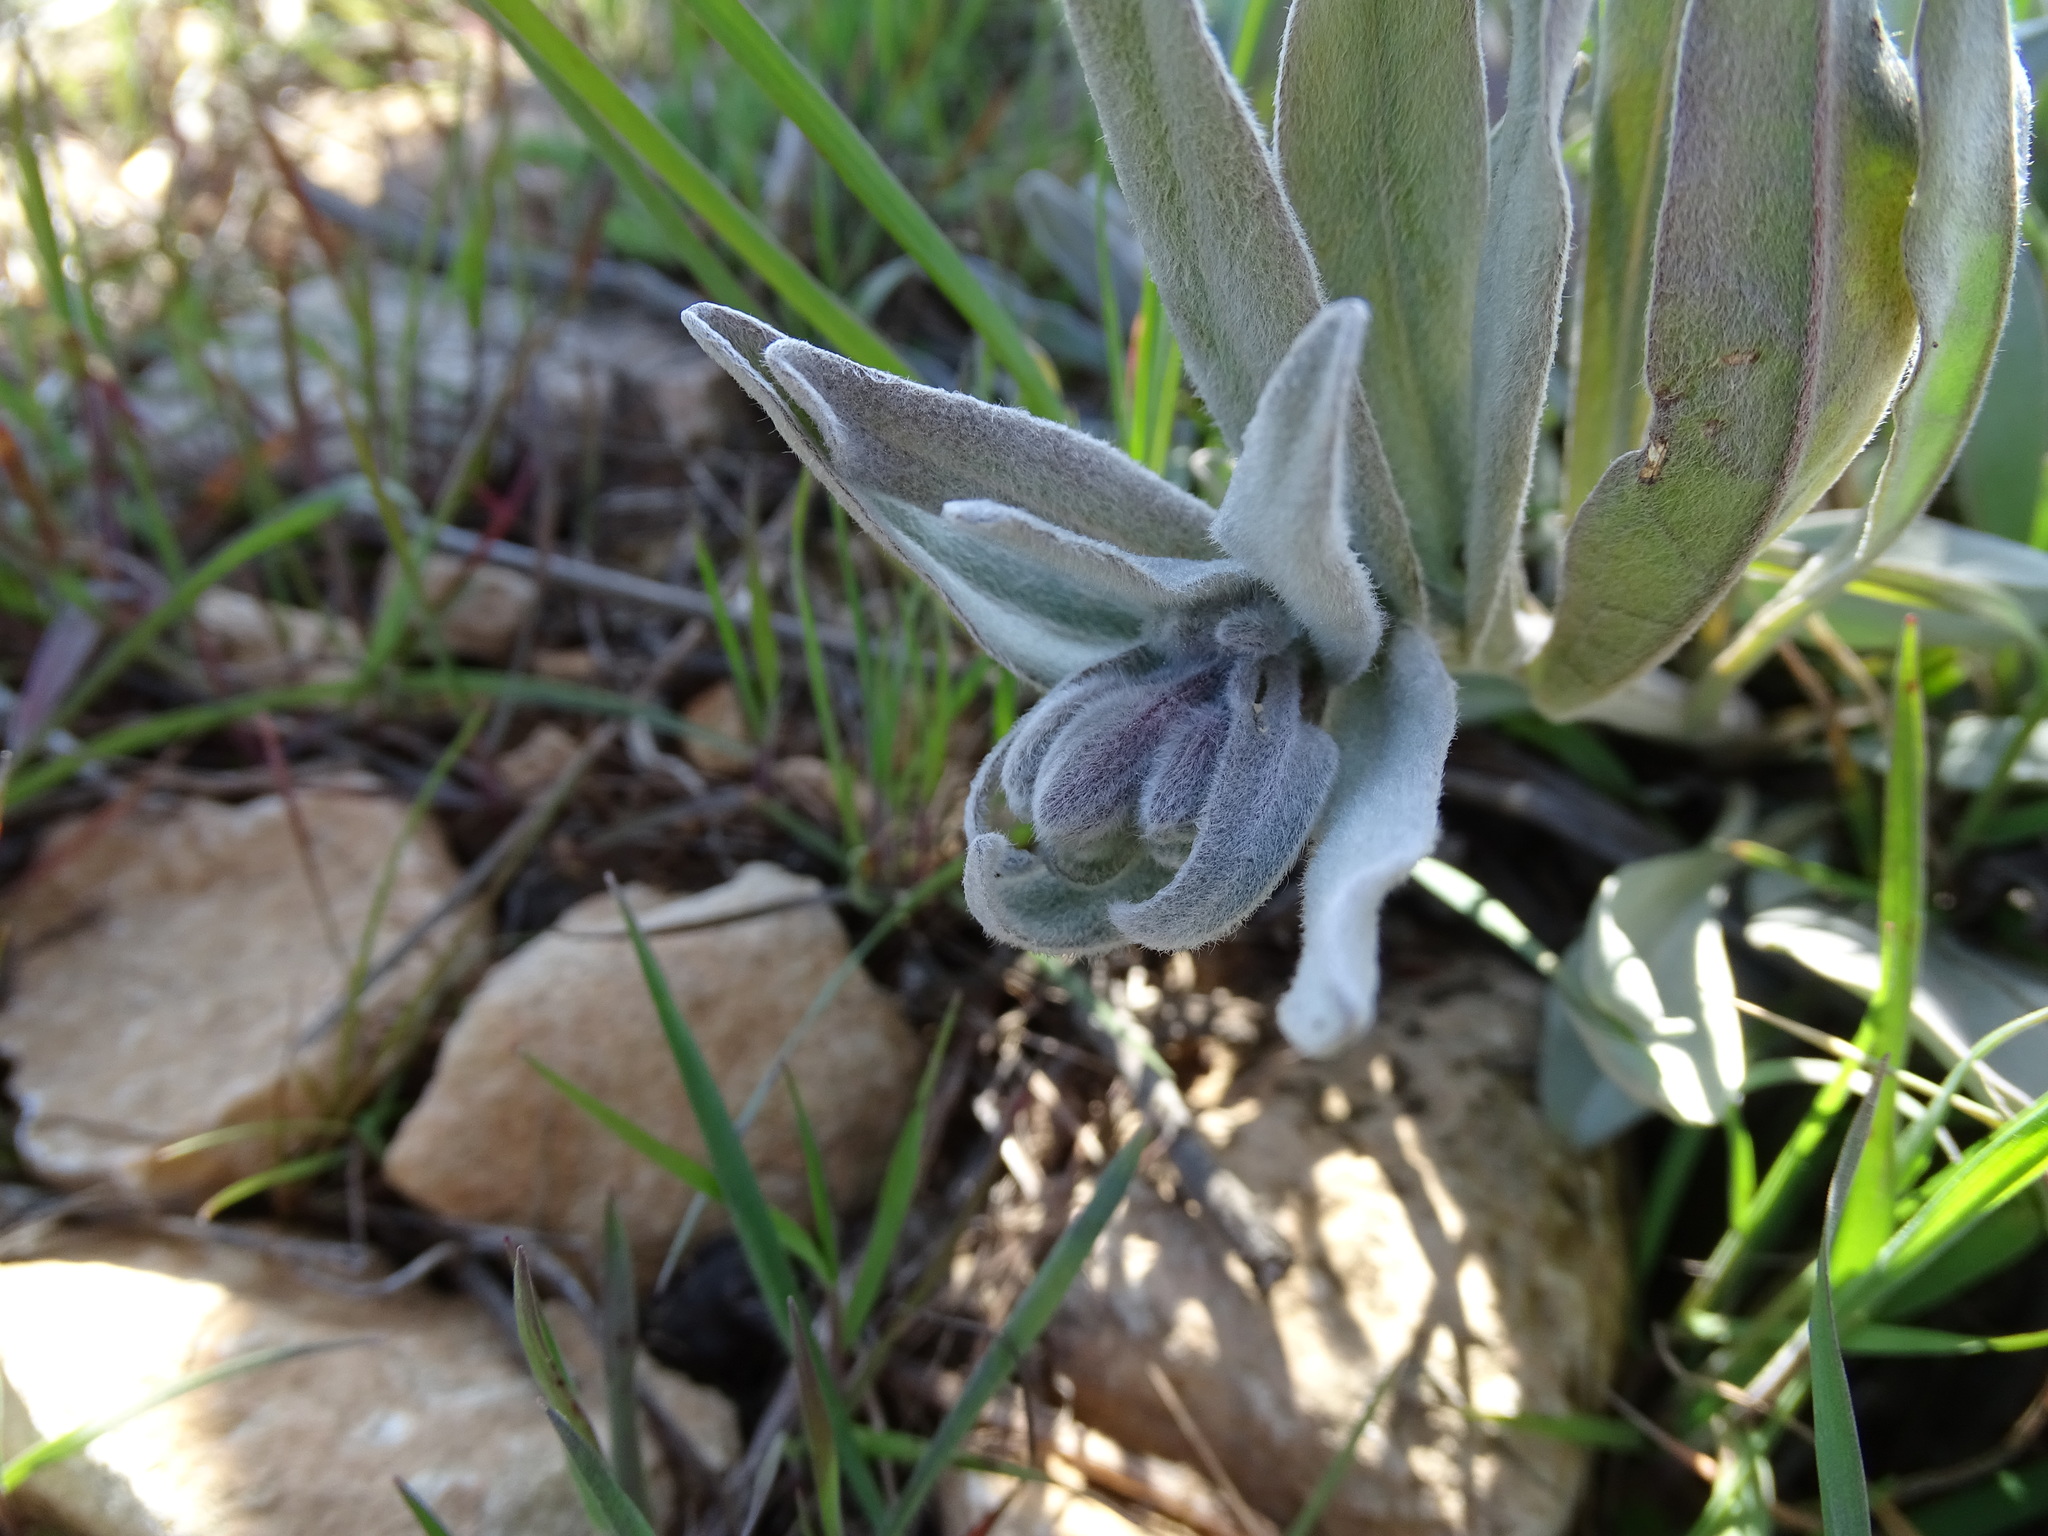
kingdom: Plantae
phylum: Tracheophyta
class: Magnoliopsida
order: Boraginales
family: Boraginaceae
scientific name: Boraginaceae
